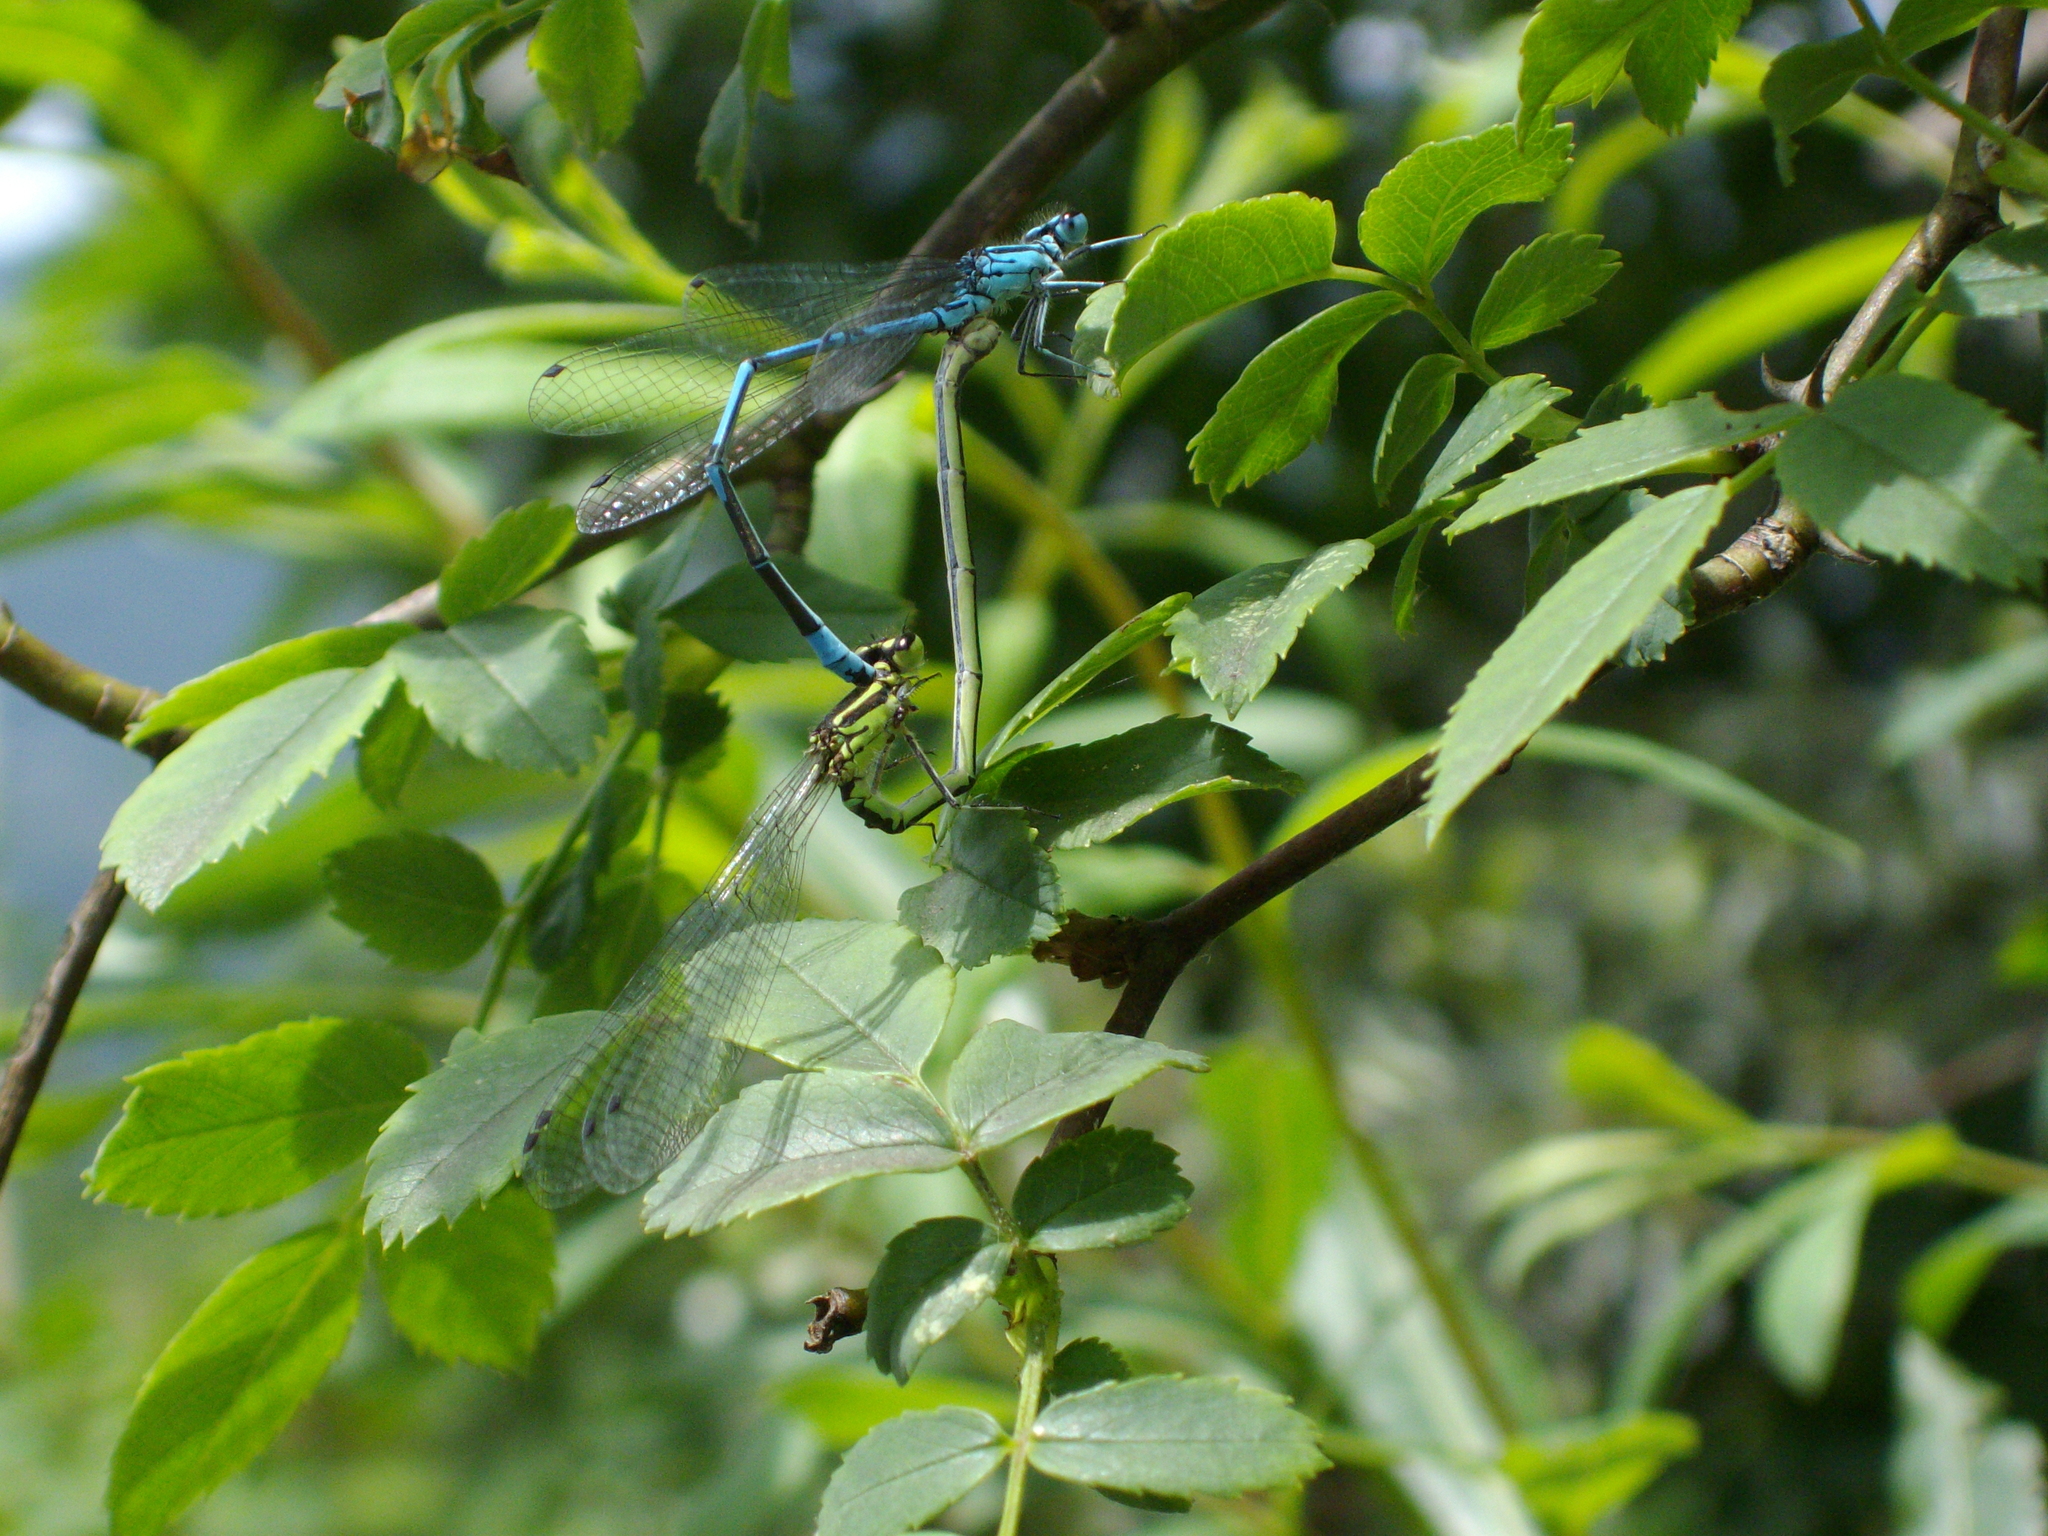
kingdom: Animalia
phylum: Arthropoda
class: Insecta
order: Odonata
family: Coenagrionidae
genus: Coenagrion
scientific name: Coenagrion puella
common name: Azure damselfly
